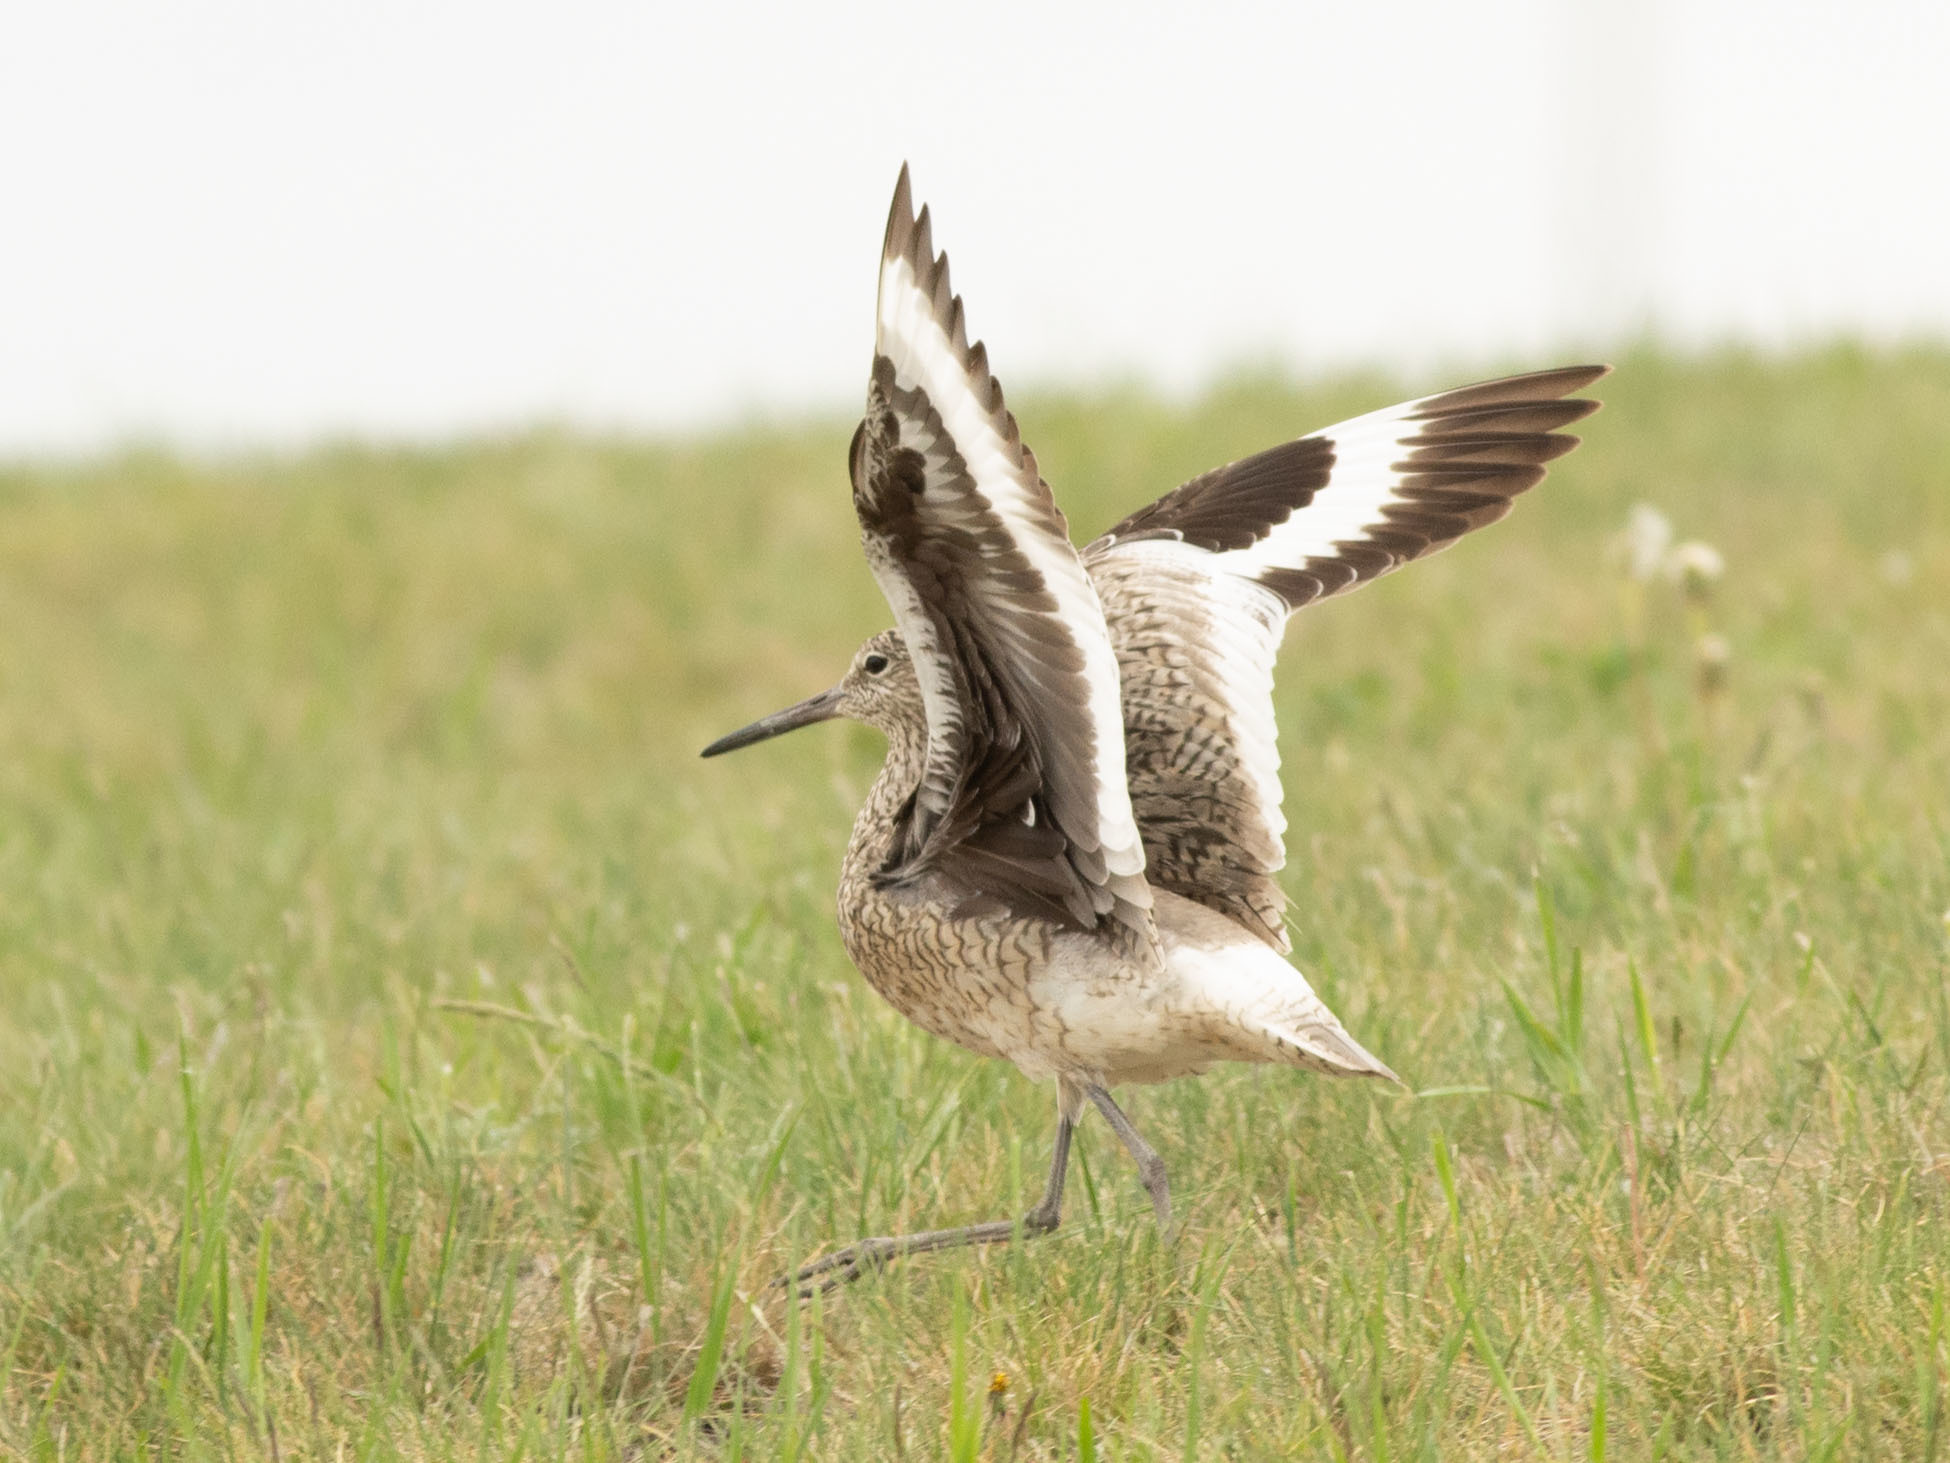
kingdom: Animalia
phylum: Chordata
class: Aves
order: Charadriiformes
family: Scolopacidae
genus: Tringa
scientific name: Tringa semipalmata
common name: Willet
